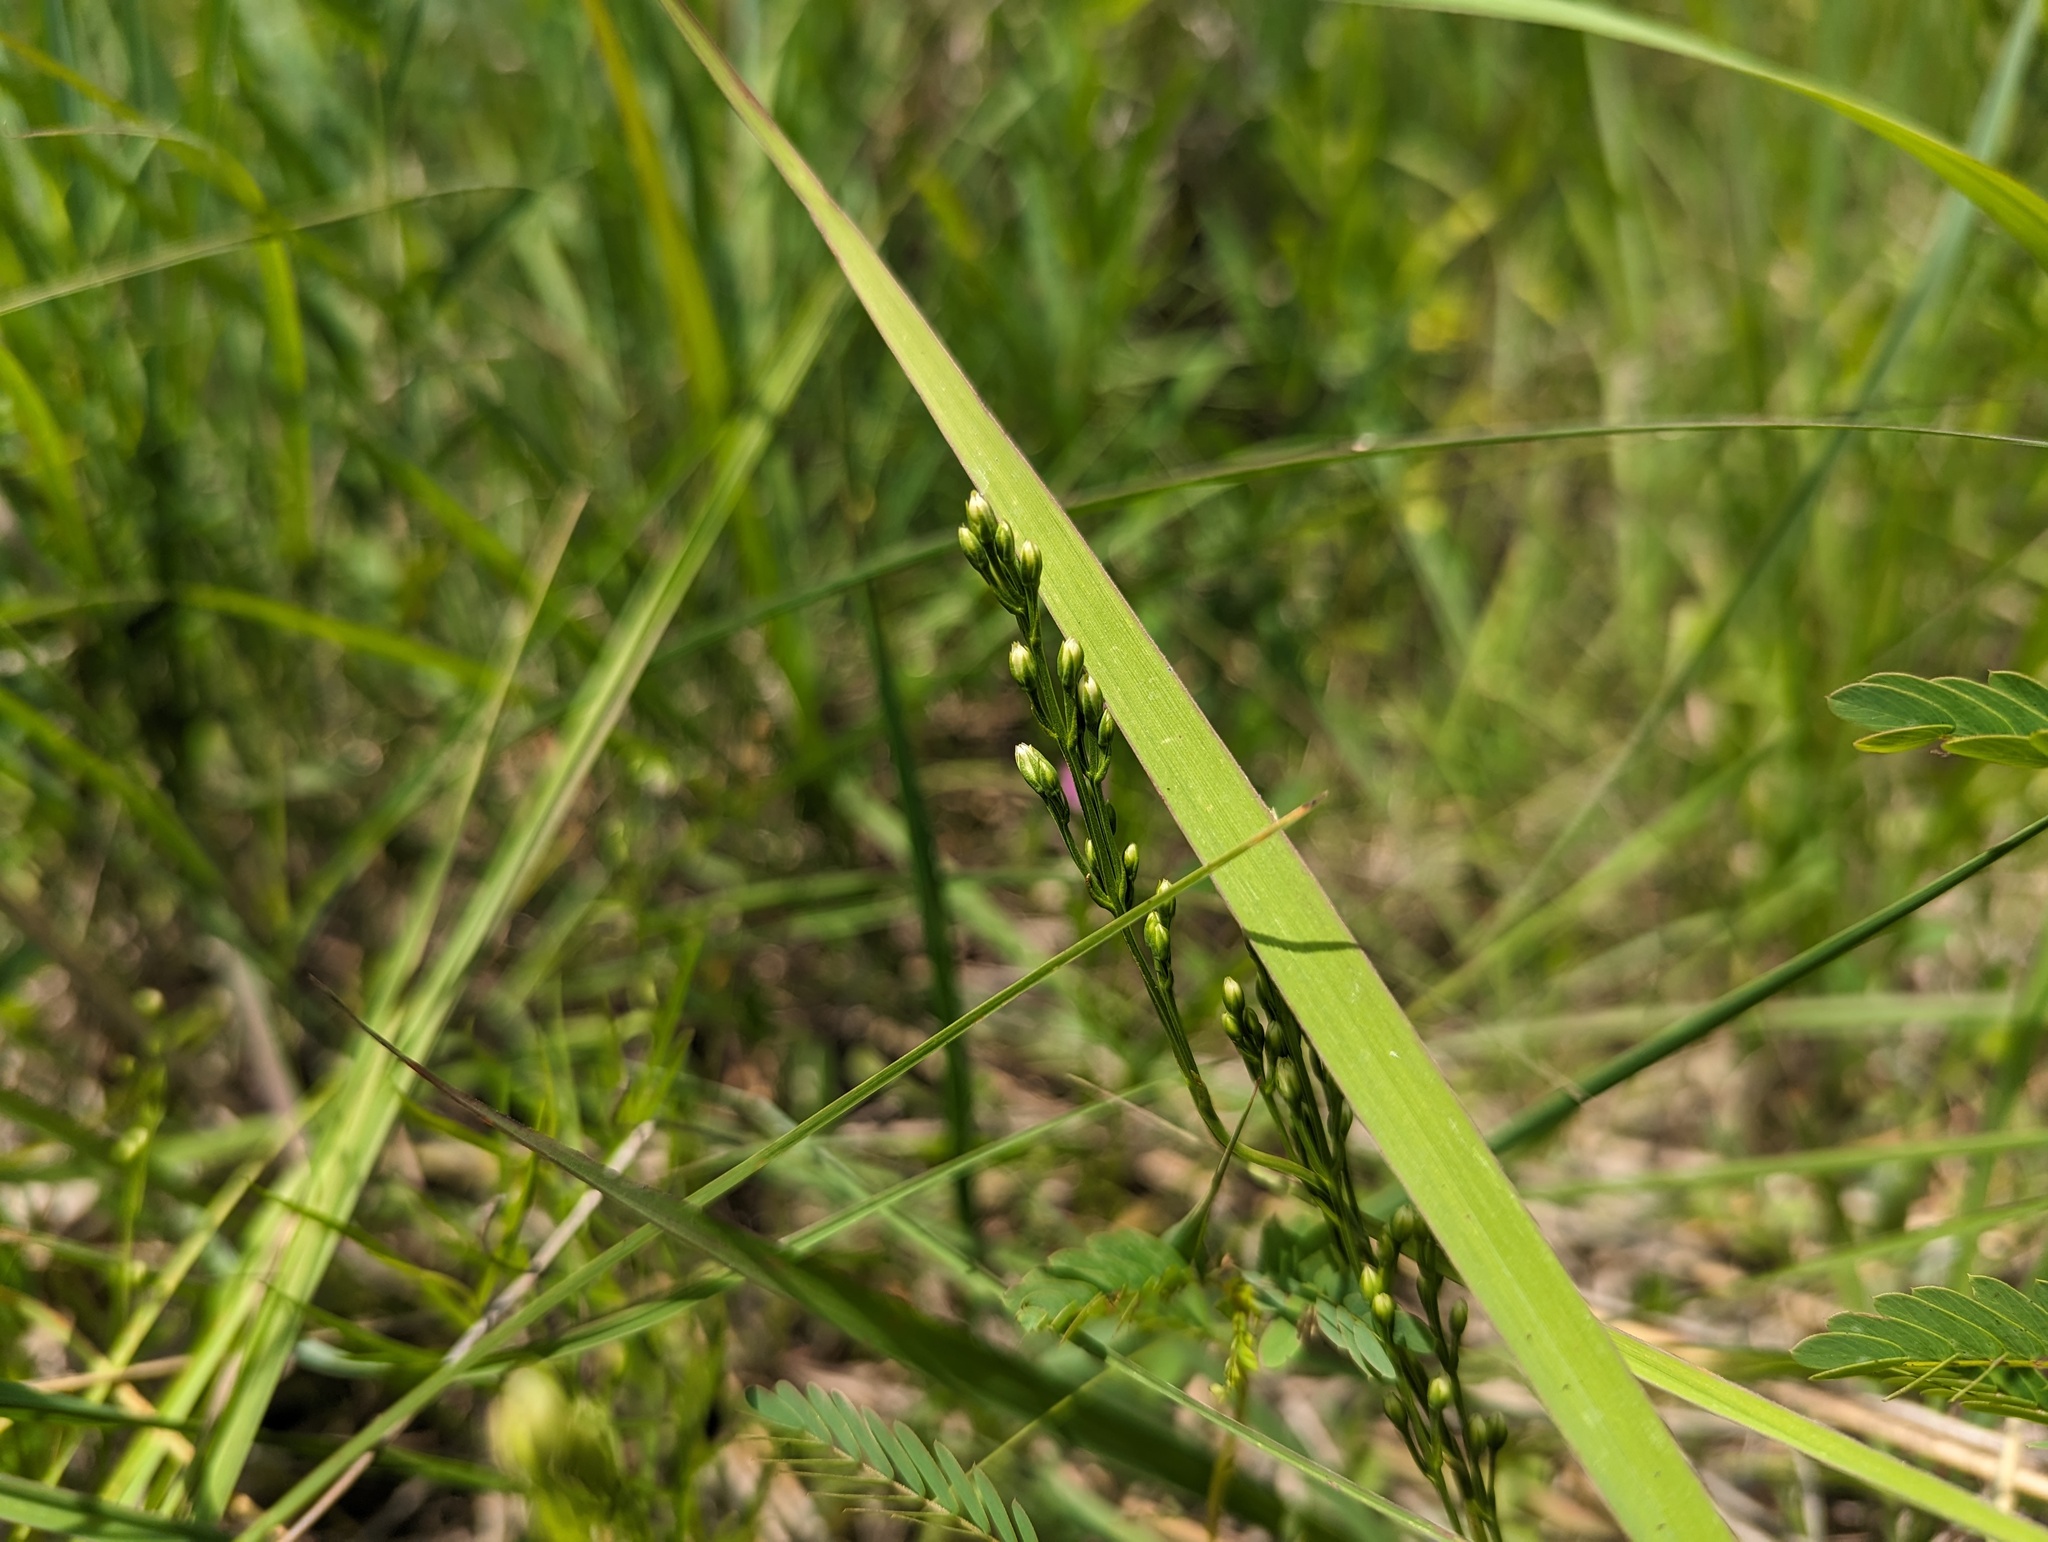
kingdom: Plantae
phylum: Tracheophyta
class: Magnoliopsida
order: Gentianales
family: Gentianaceae
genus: Bartonia
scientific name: Bartonia virginica
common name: Yellow bartonia
